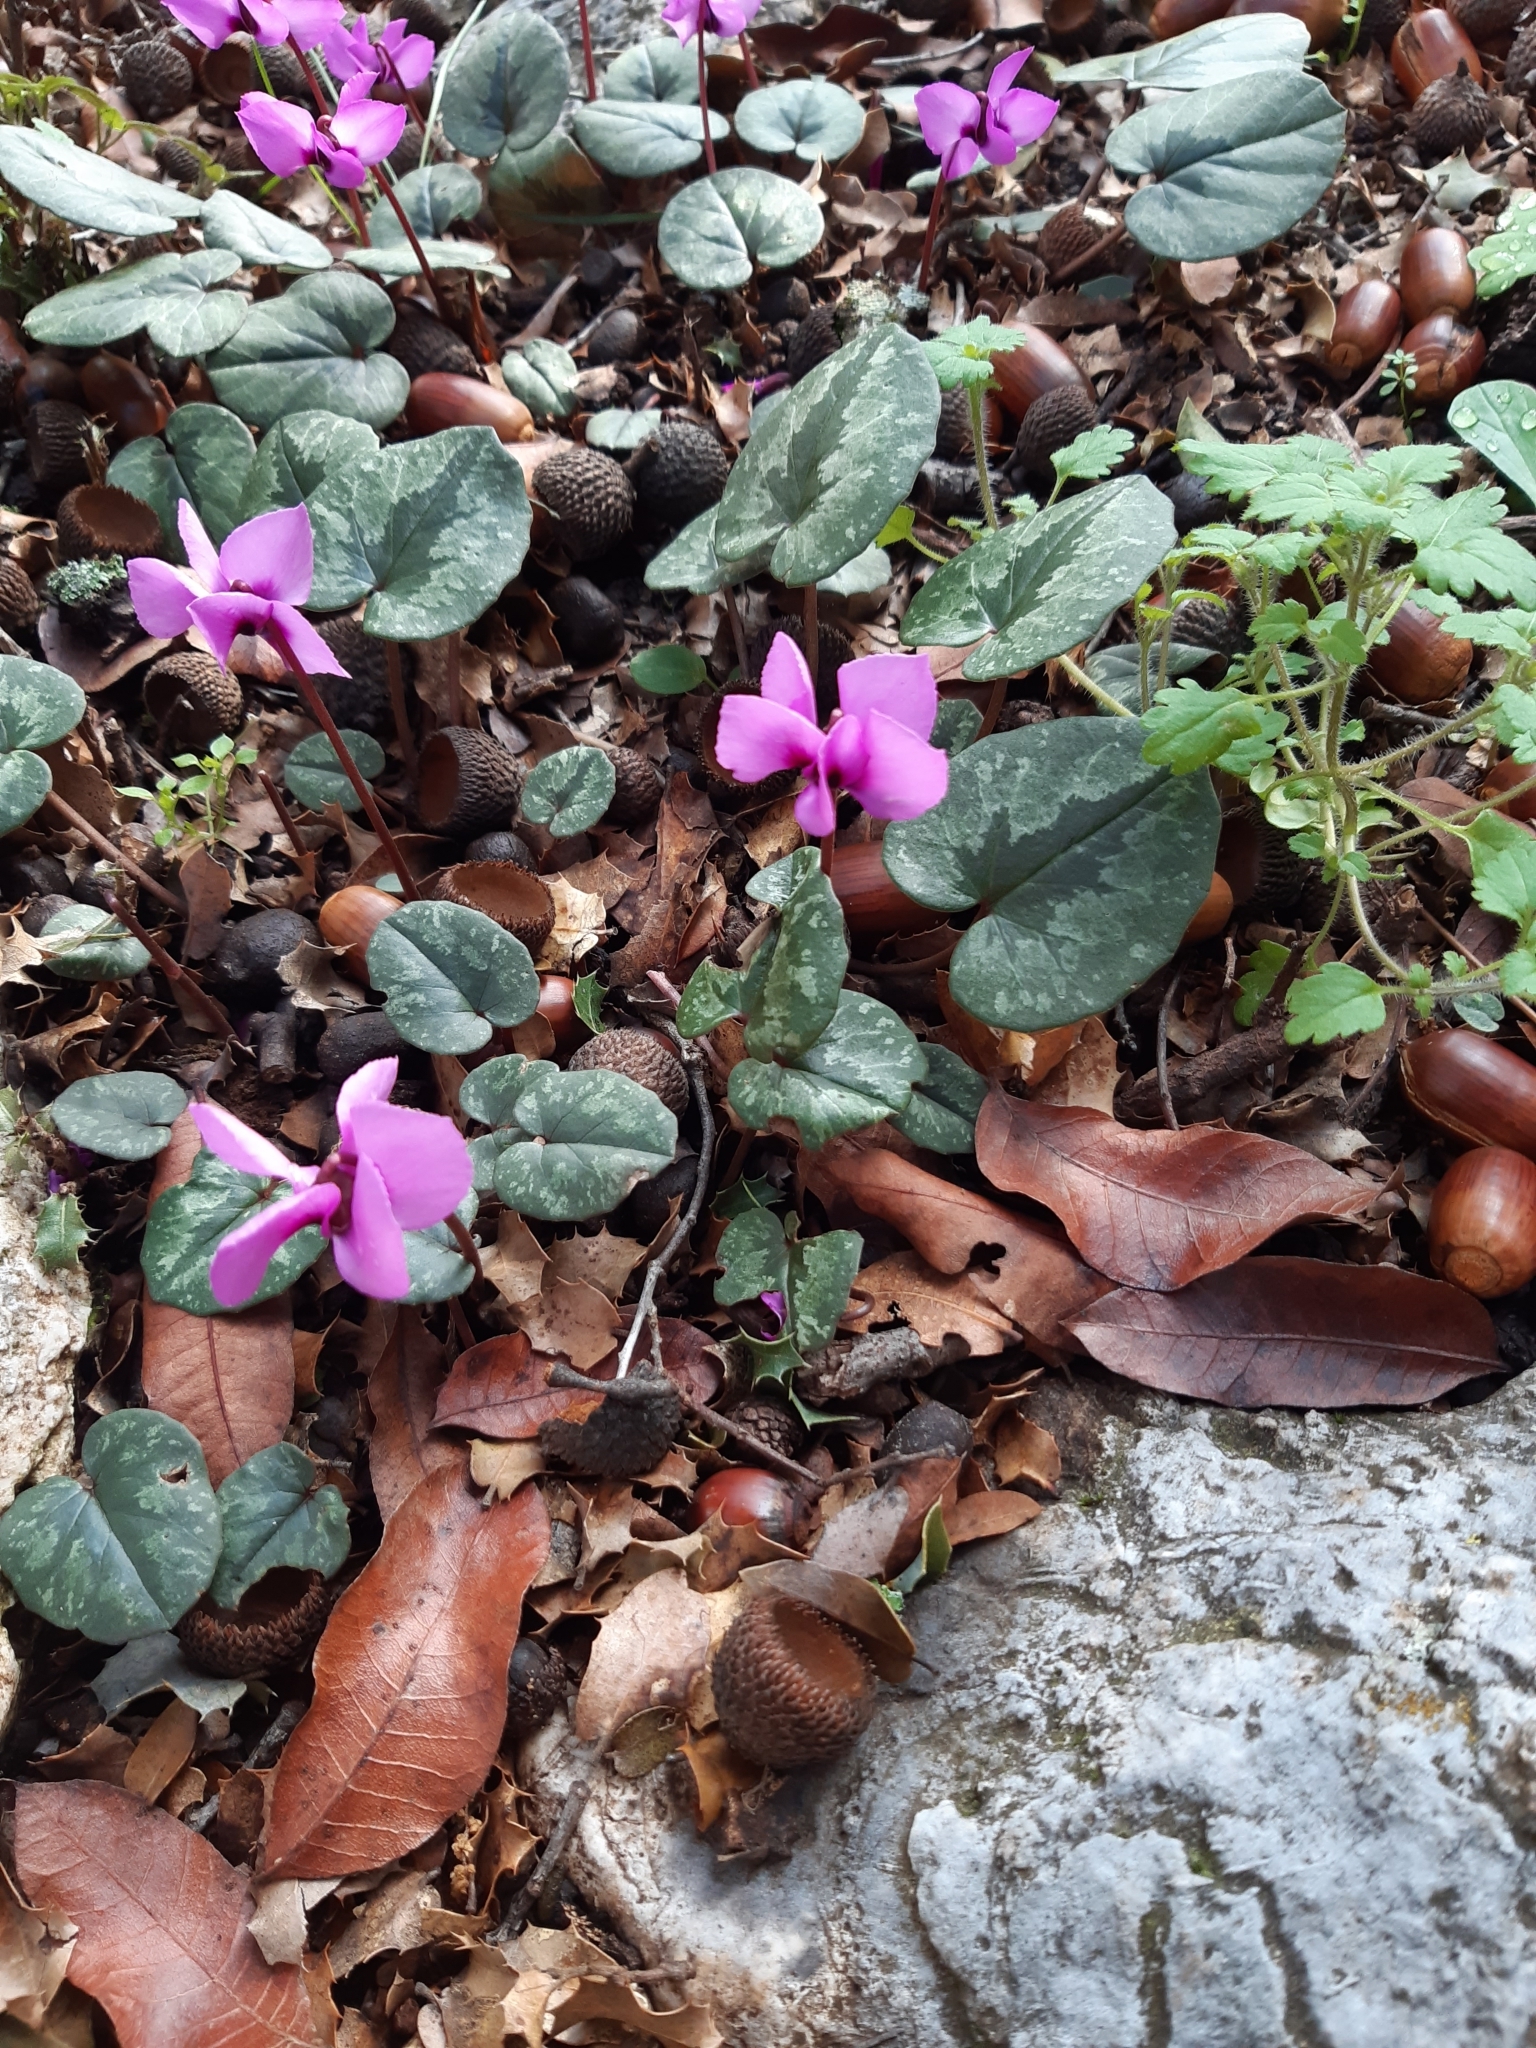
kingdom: Plantae
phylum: Tracheophyta
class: Magnoliopsida
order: Ericales
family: Primulaceae
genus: Cyclamen
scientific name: Cyclamen alpinum
